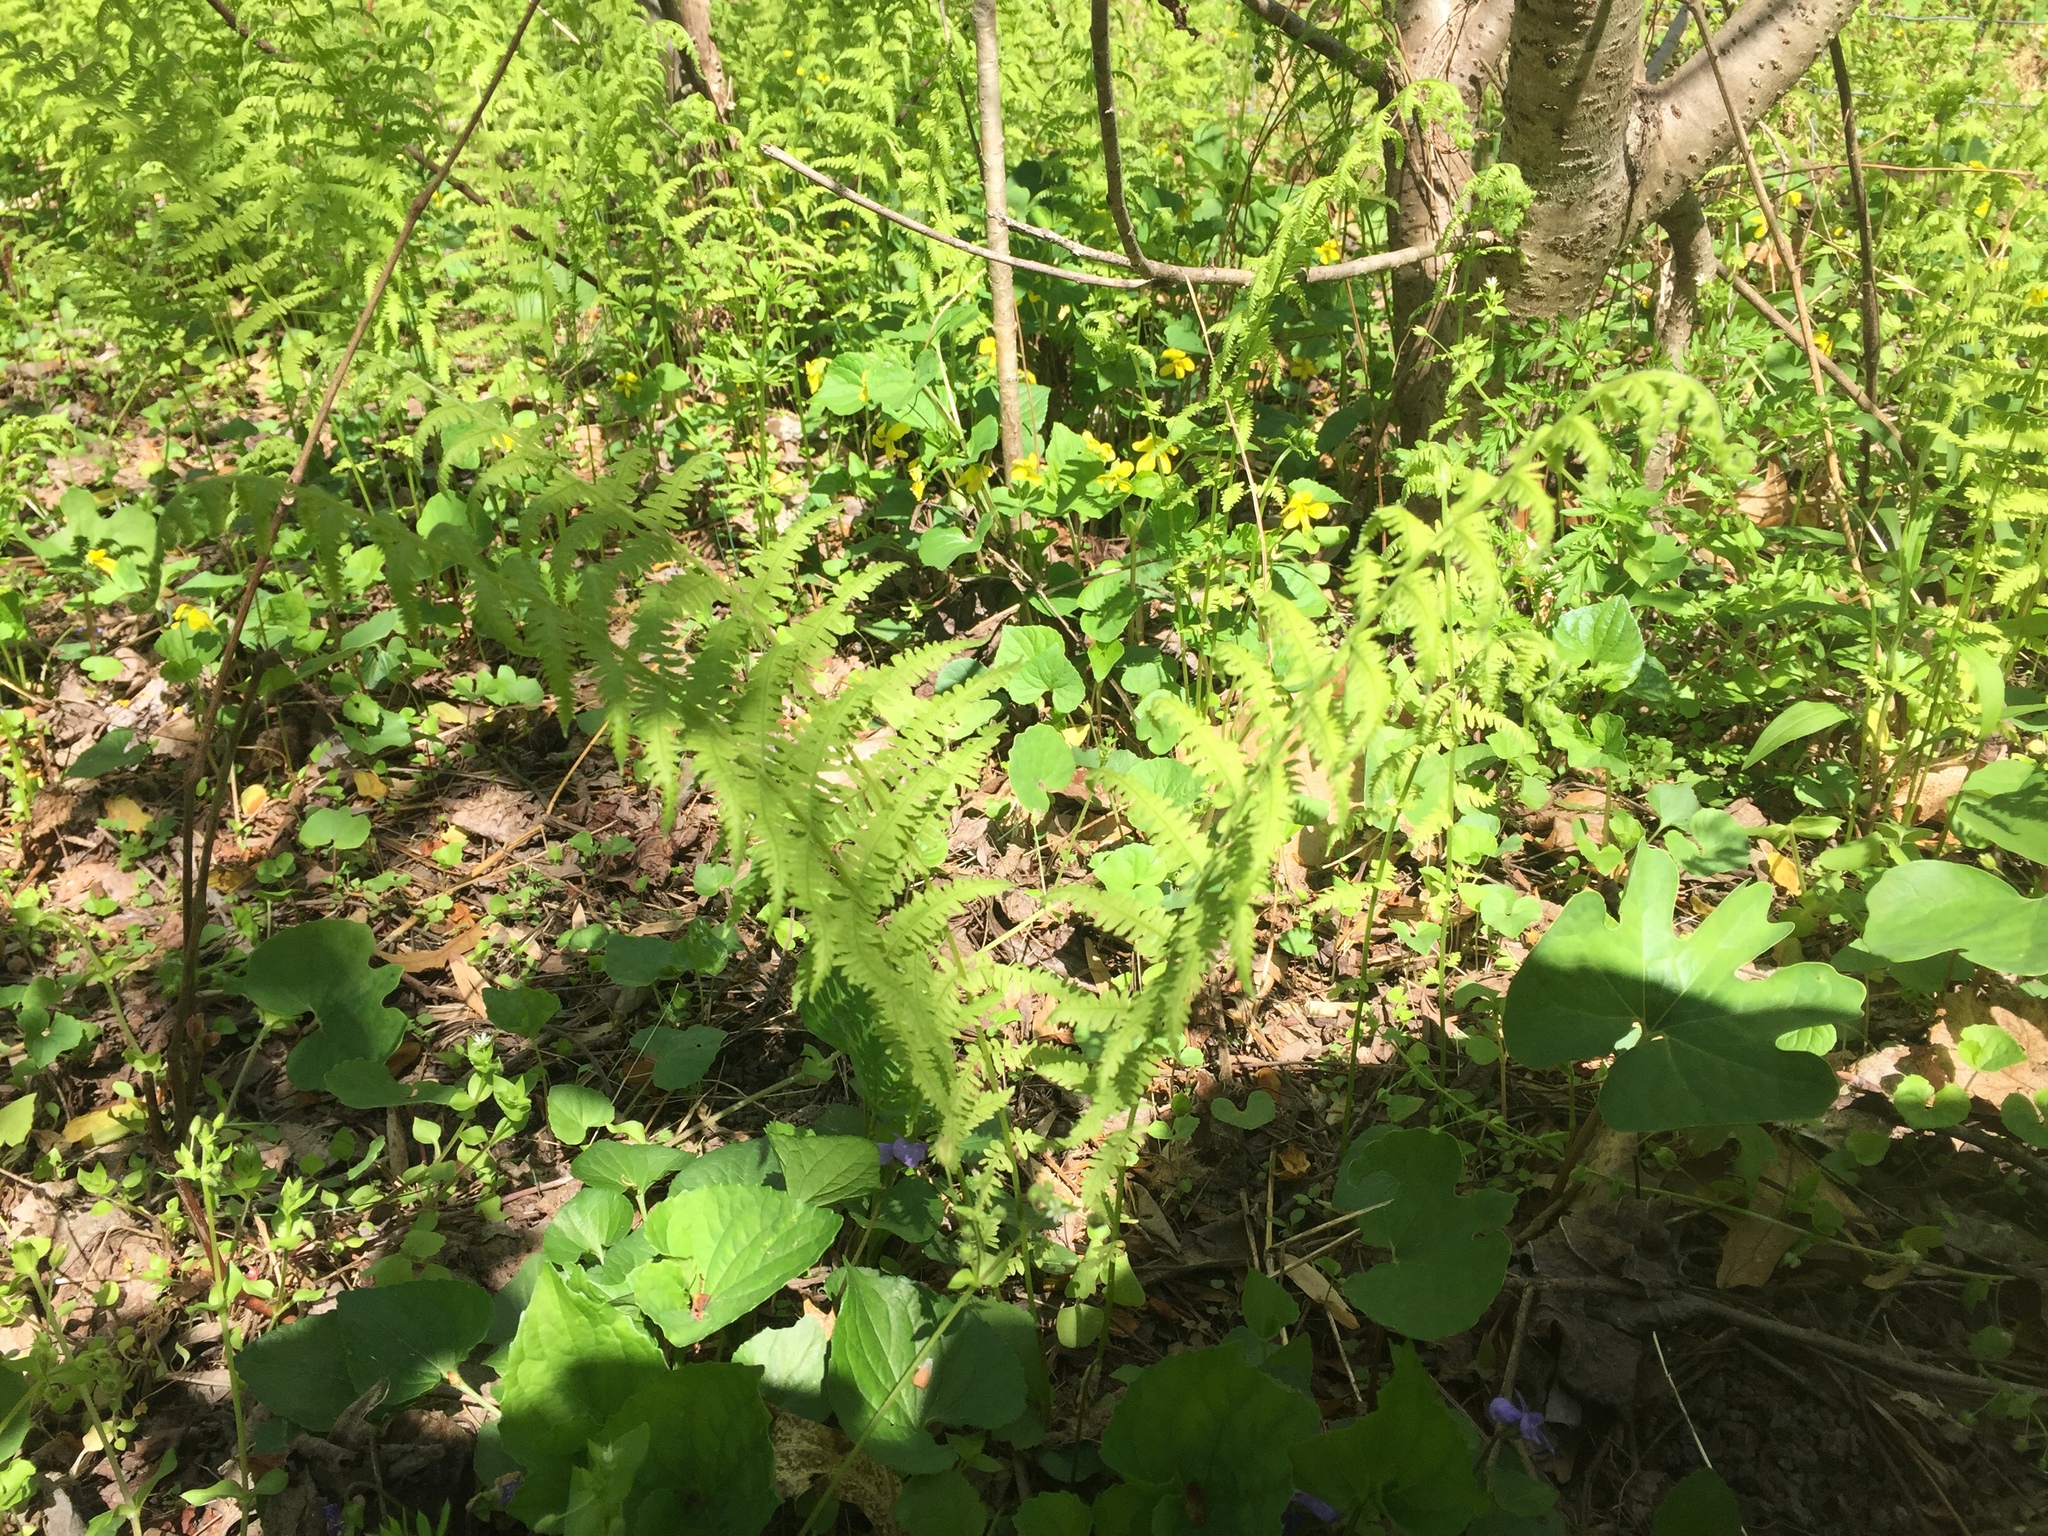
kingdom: Plantae
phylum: Tracheophyta
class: Polypodiopsida
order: Polypodiales
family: Thelypteridaceae
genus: Amauropelta
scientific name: Amauropelta noveboracensis
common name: New york fern
